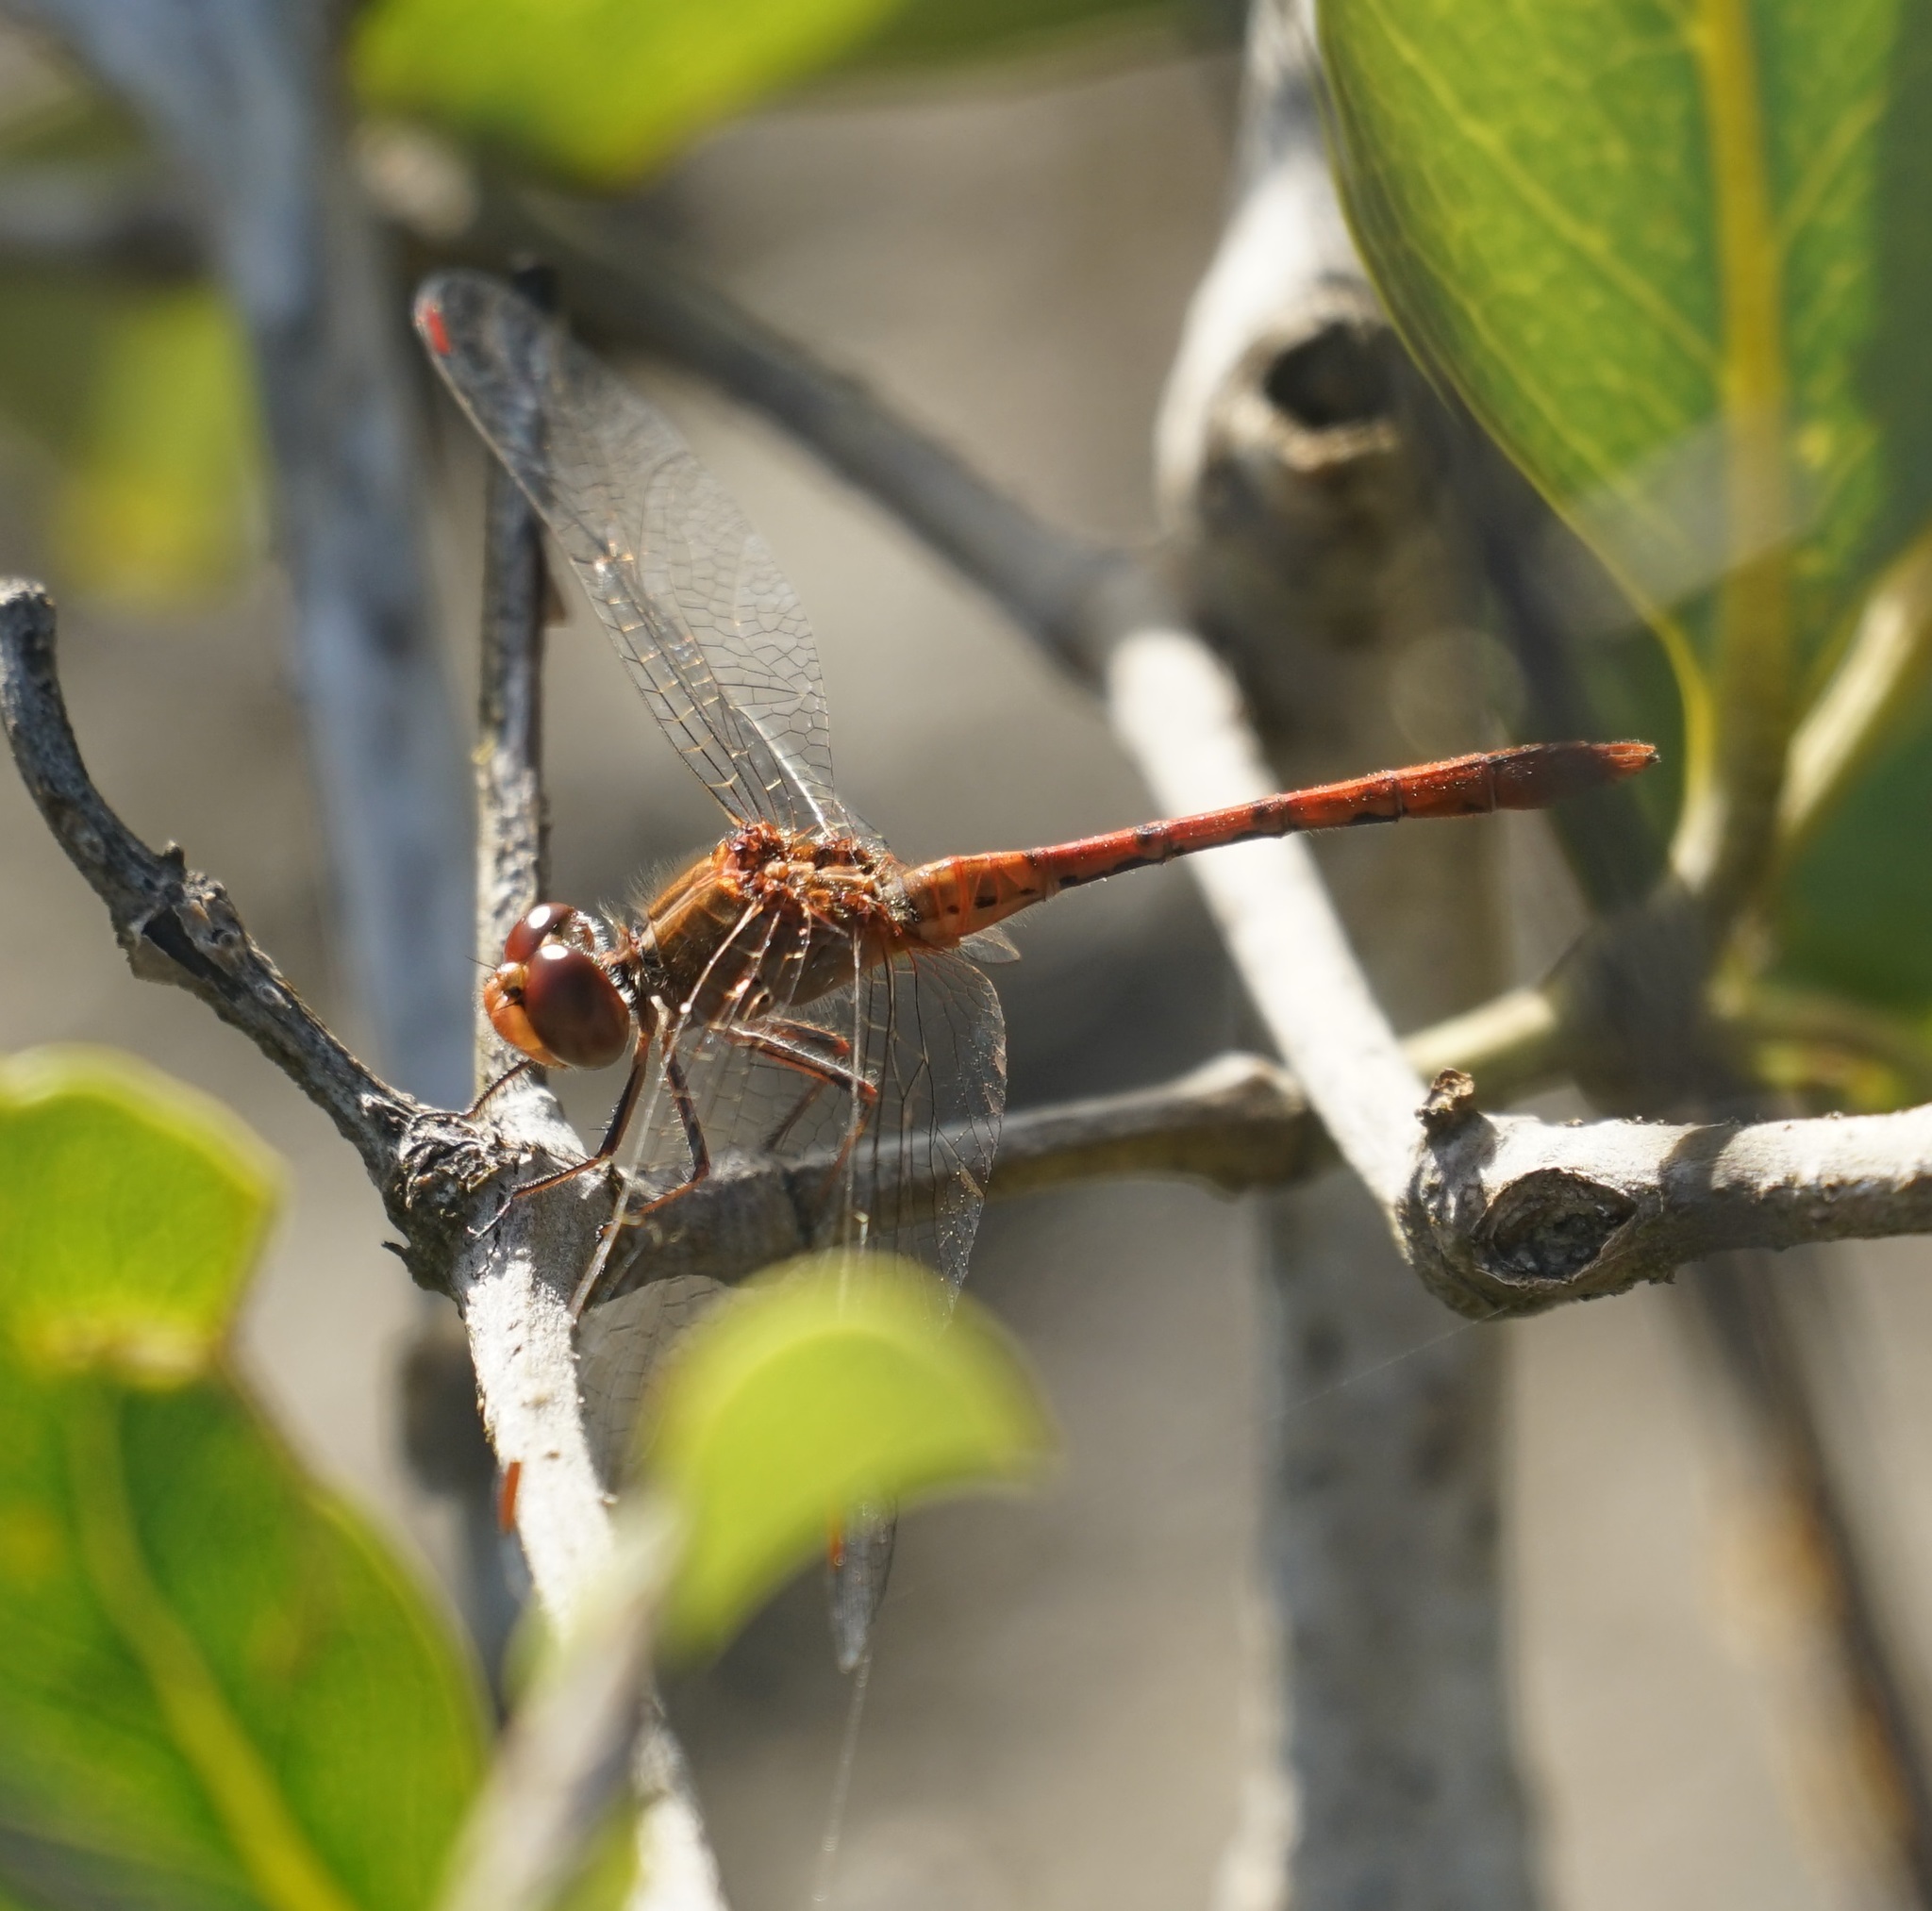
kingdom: Animalia
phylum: Arthropoda
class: Insecta
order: Odonata
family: Libellulidae
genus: Diplacodes
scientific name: Diplacodes bipunctata
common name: Red percher dragonfly
